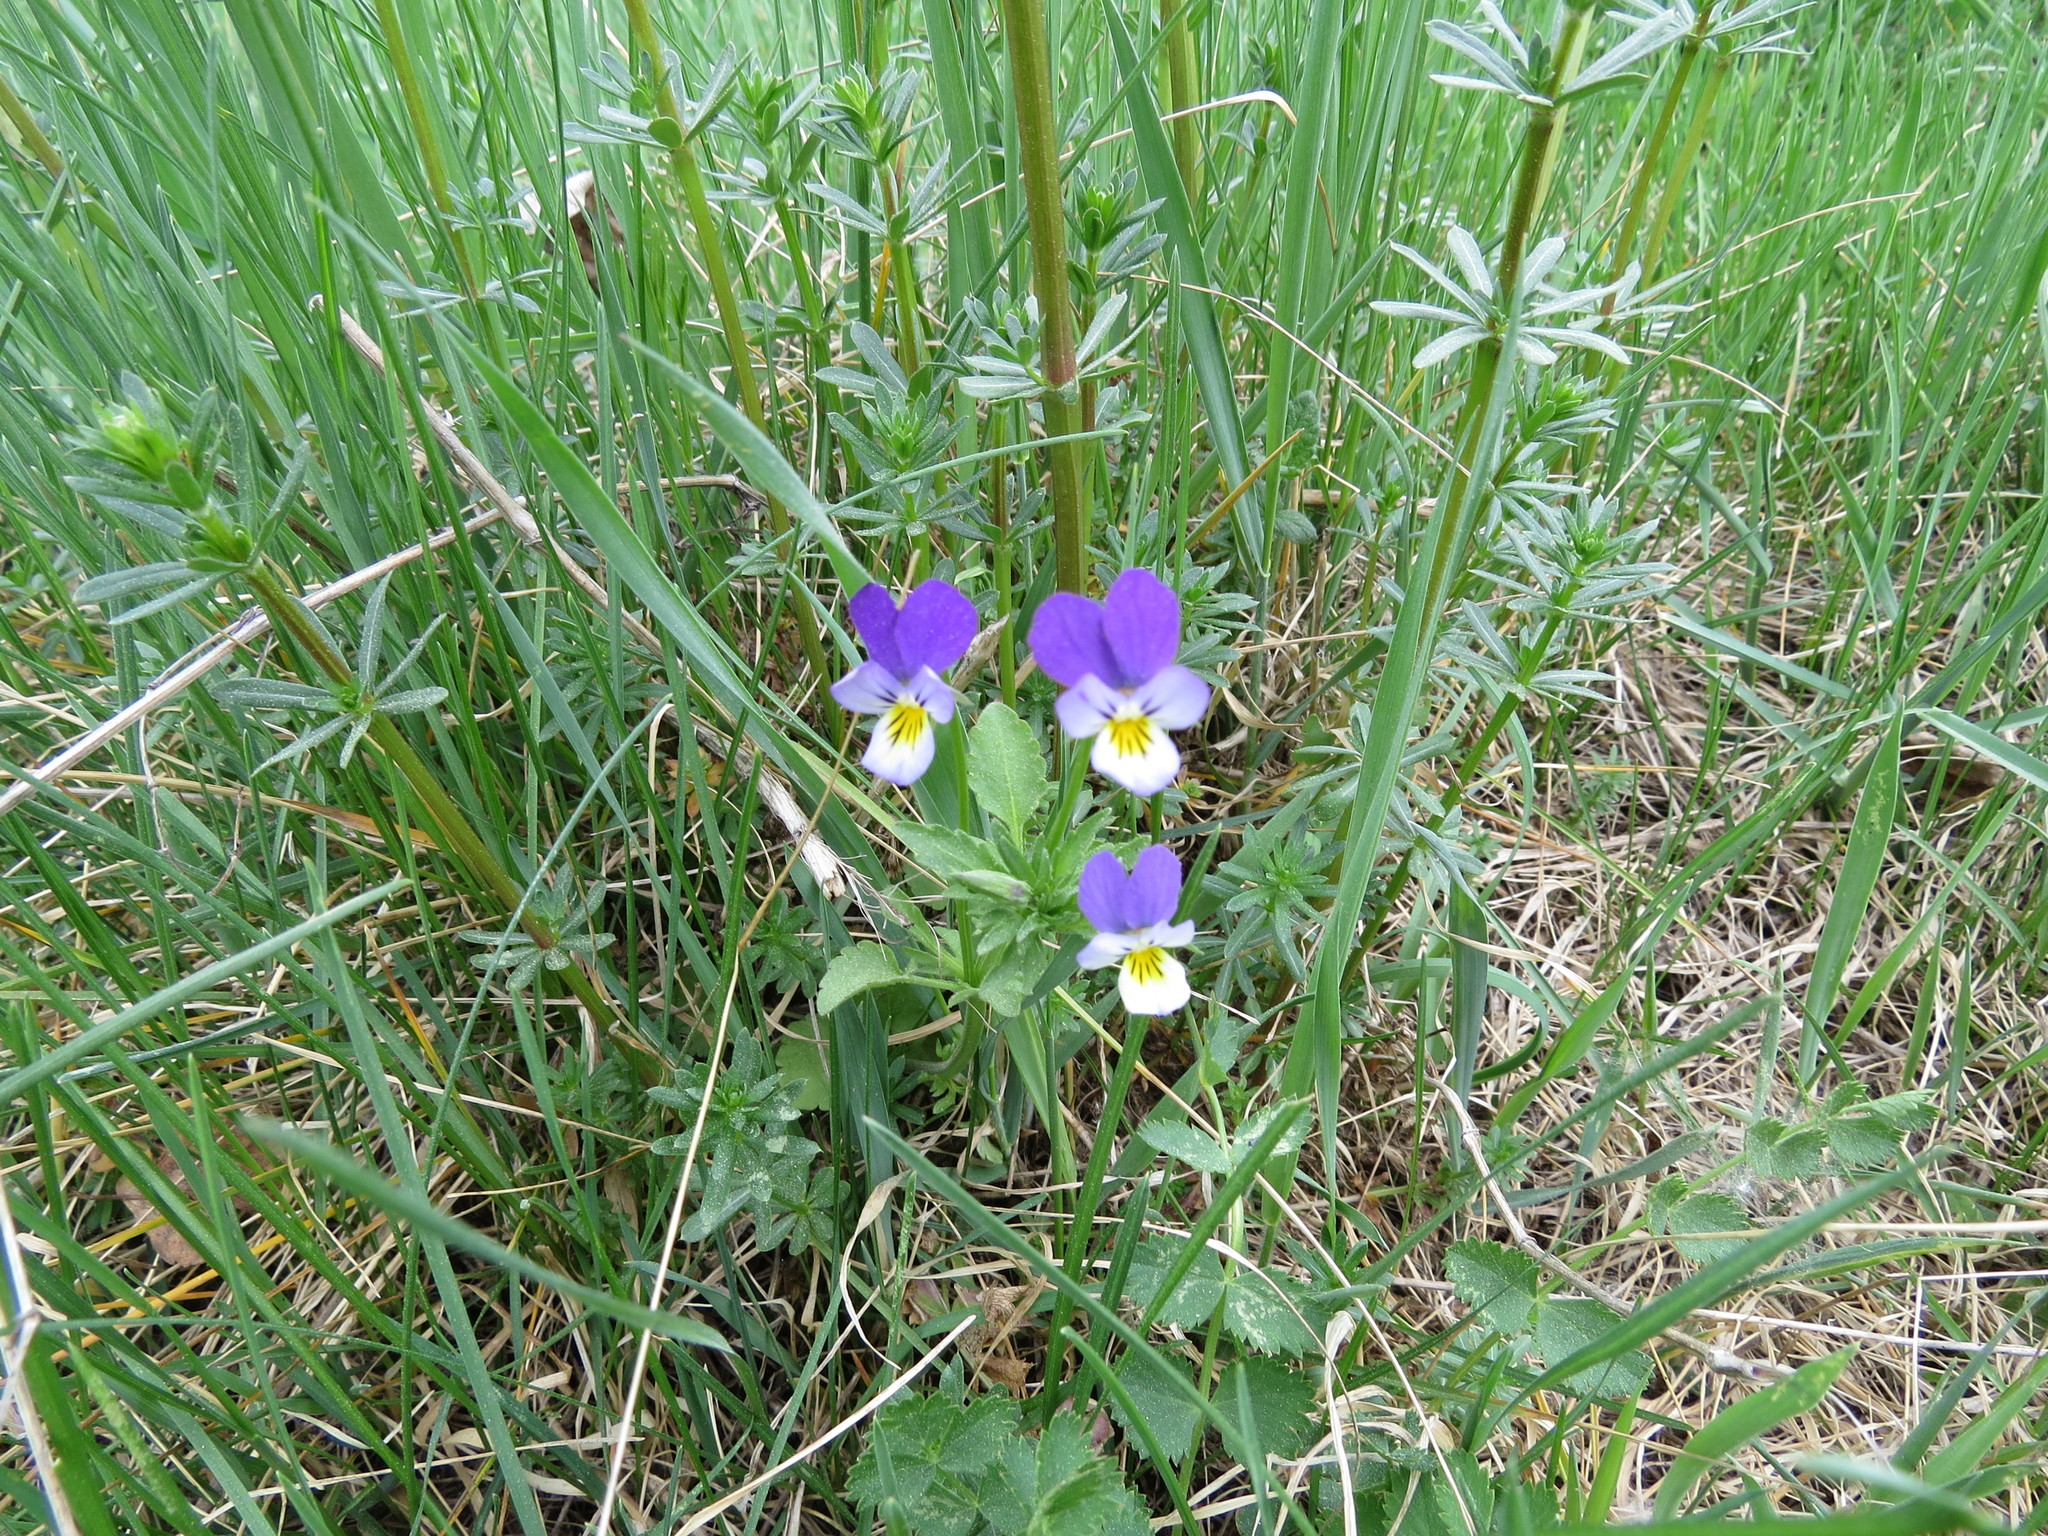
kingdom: Plantae
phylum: Tracheophyta
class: Magnoliopsida
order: Malpighiales
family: Violaceae
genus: Viola
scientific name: Viola tricolor
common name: Pansy
